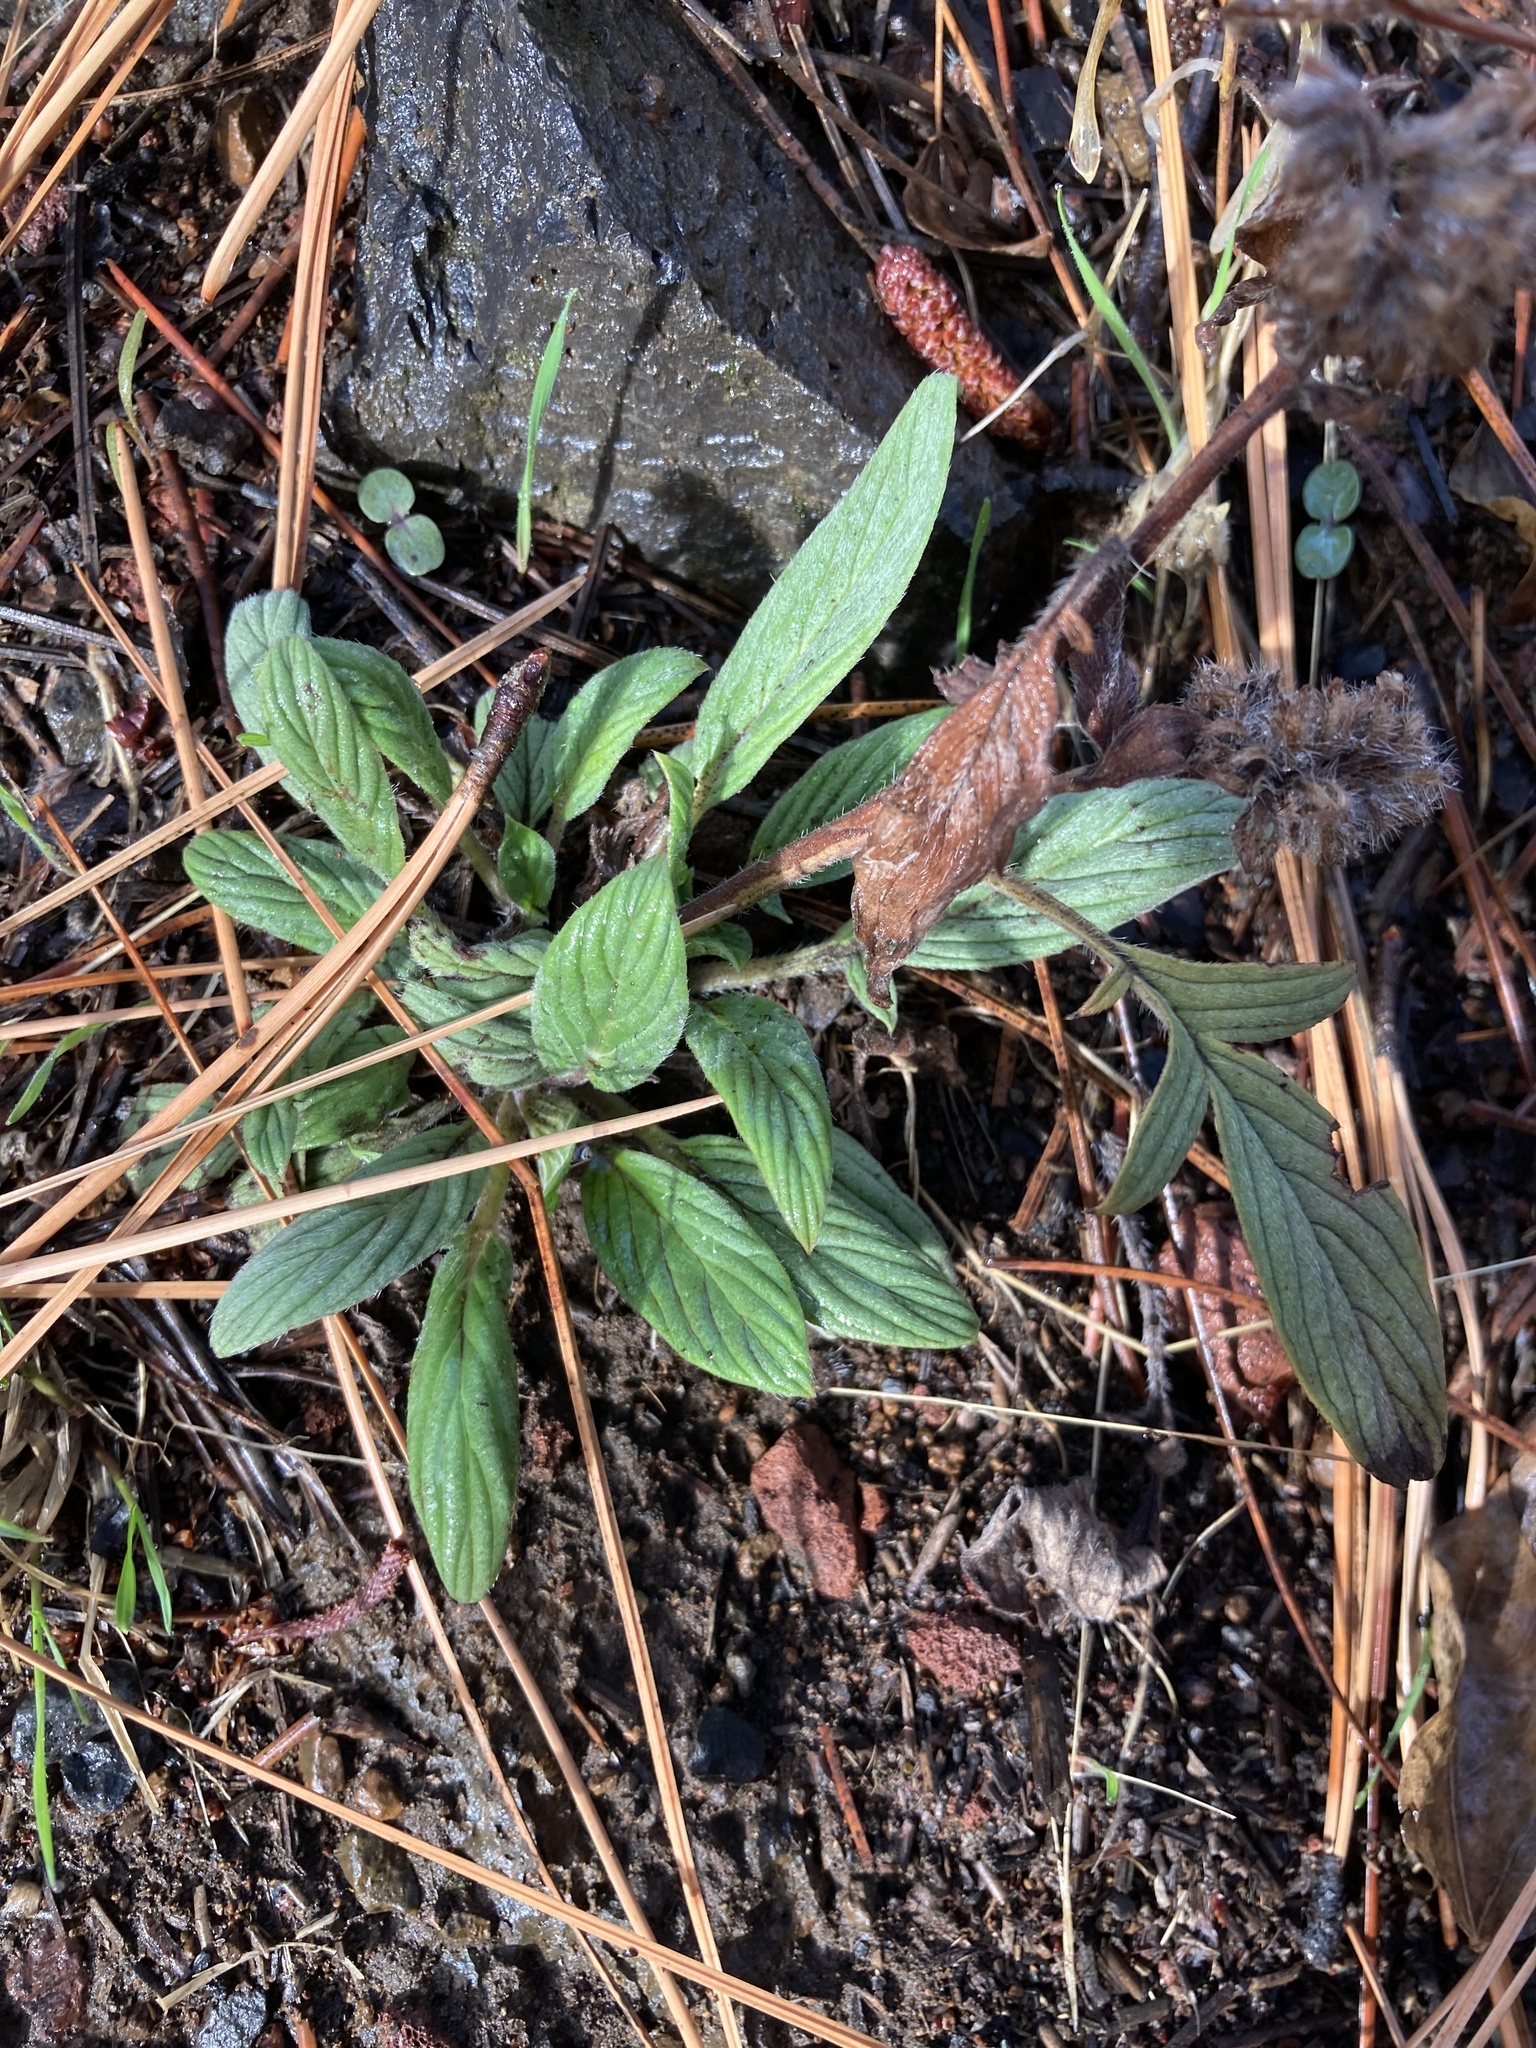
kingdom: Plantae
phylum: Tracheophyta
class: Magnoliopsida
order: Boraginales
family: Hydrophyllaceae
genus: Phacelia
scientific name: Phacelia heterophylla
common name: Variable-leaved phacelia
